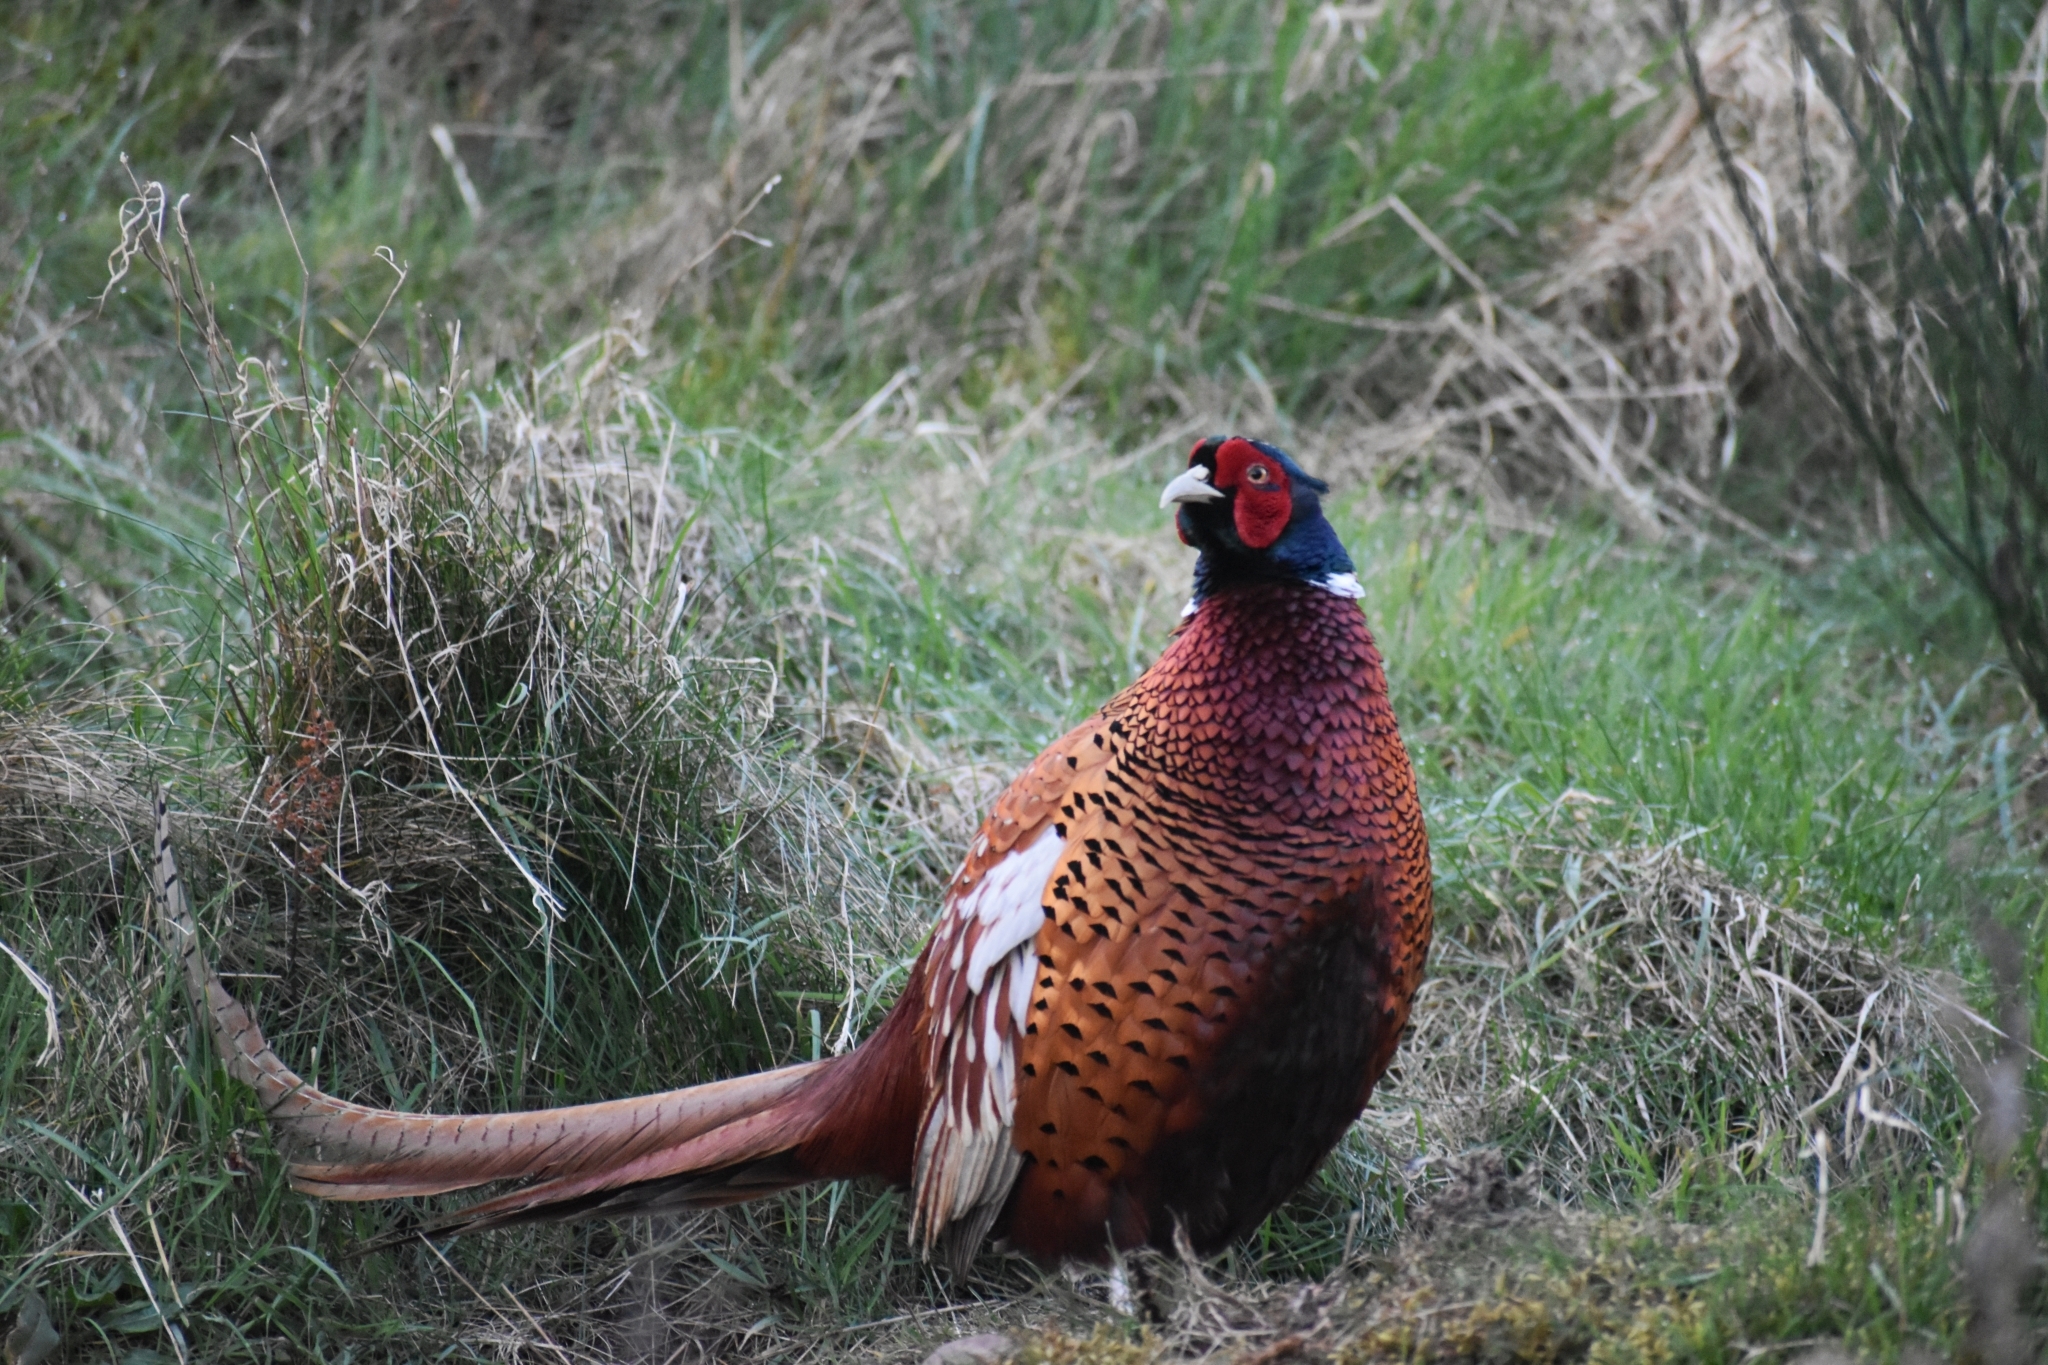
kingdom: Animalia
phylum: Chordata
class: Aves
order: Galliformes
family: Phasianidae
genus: Phasianus
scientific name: Phasianus colchicus
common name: Common pheasant
